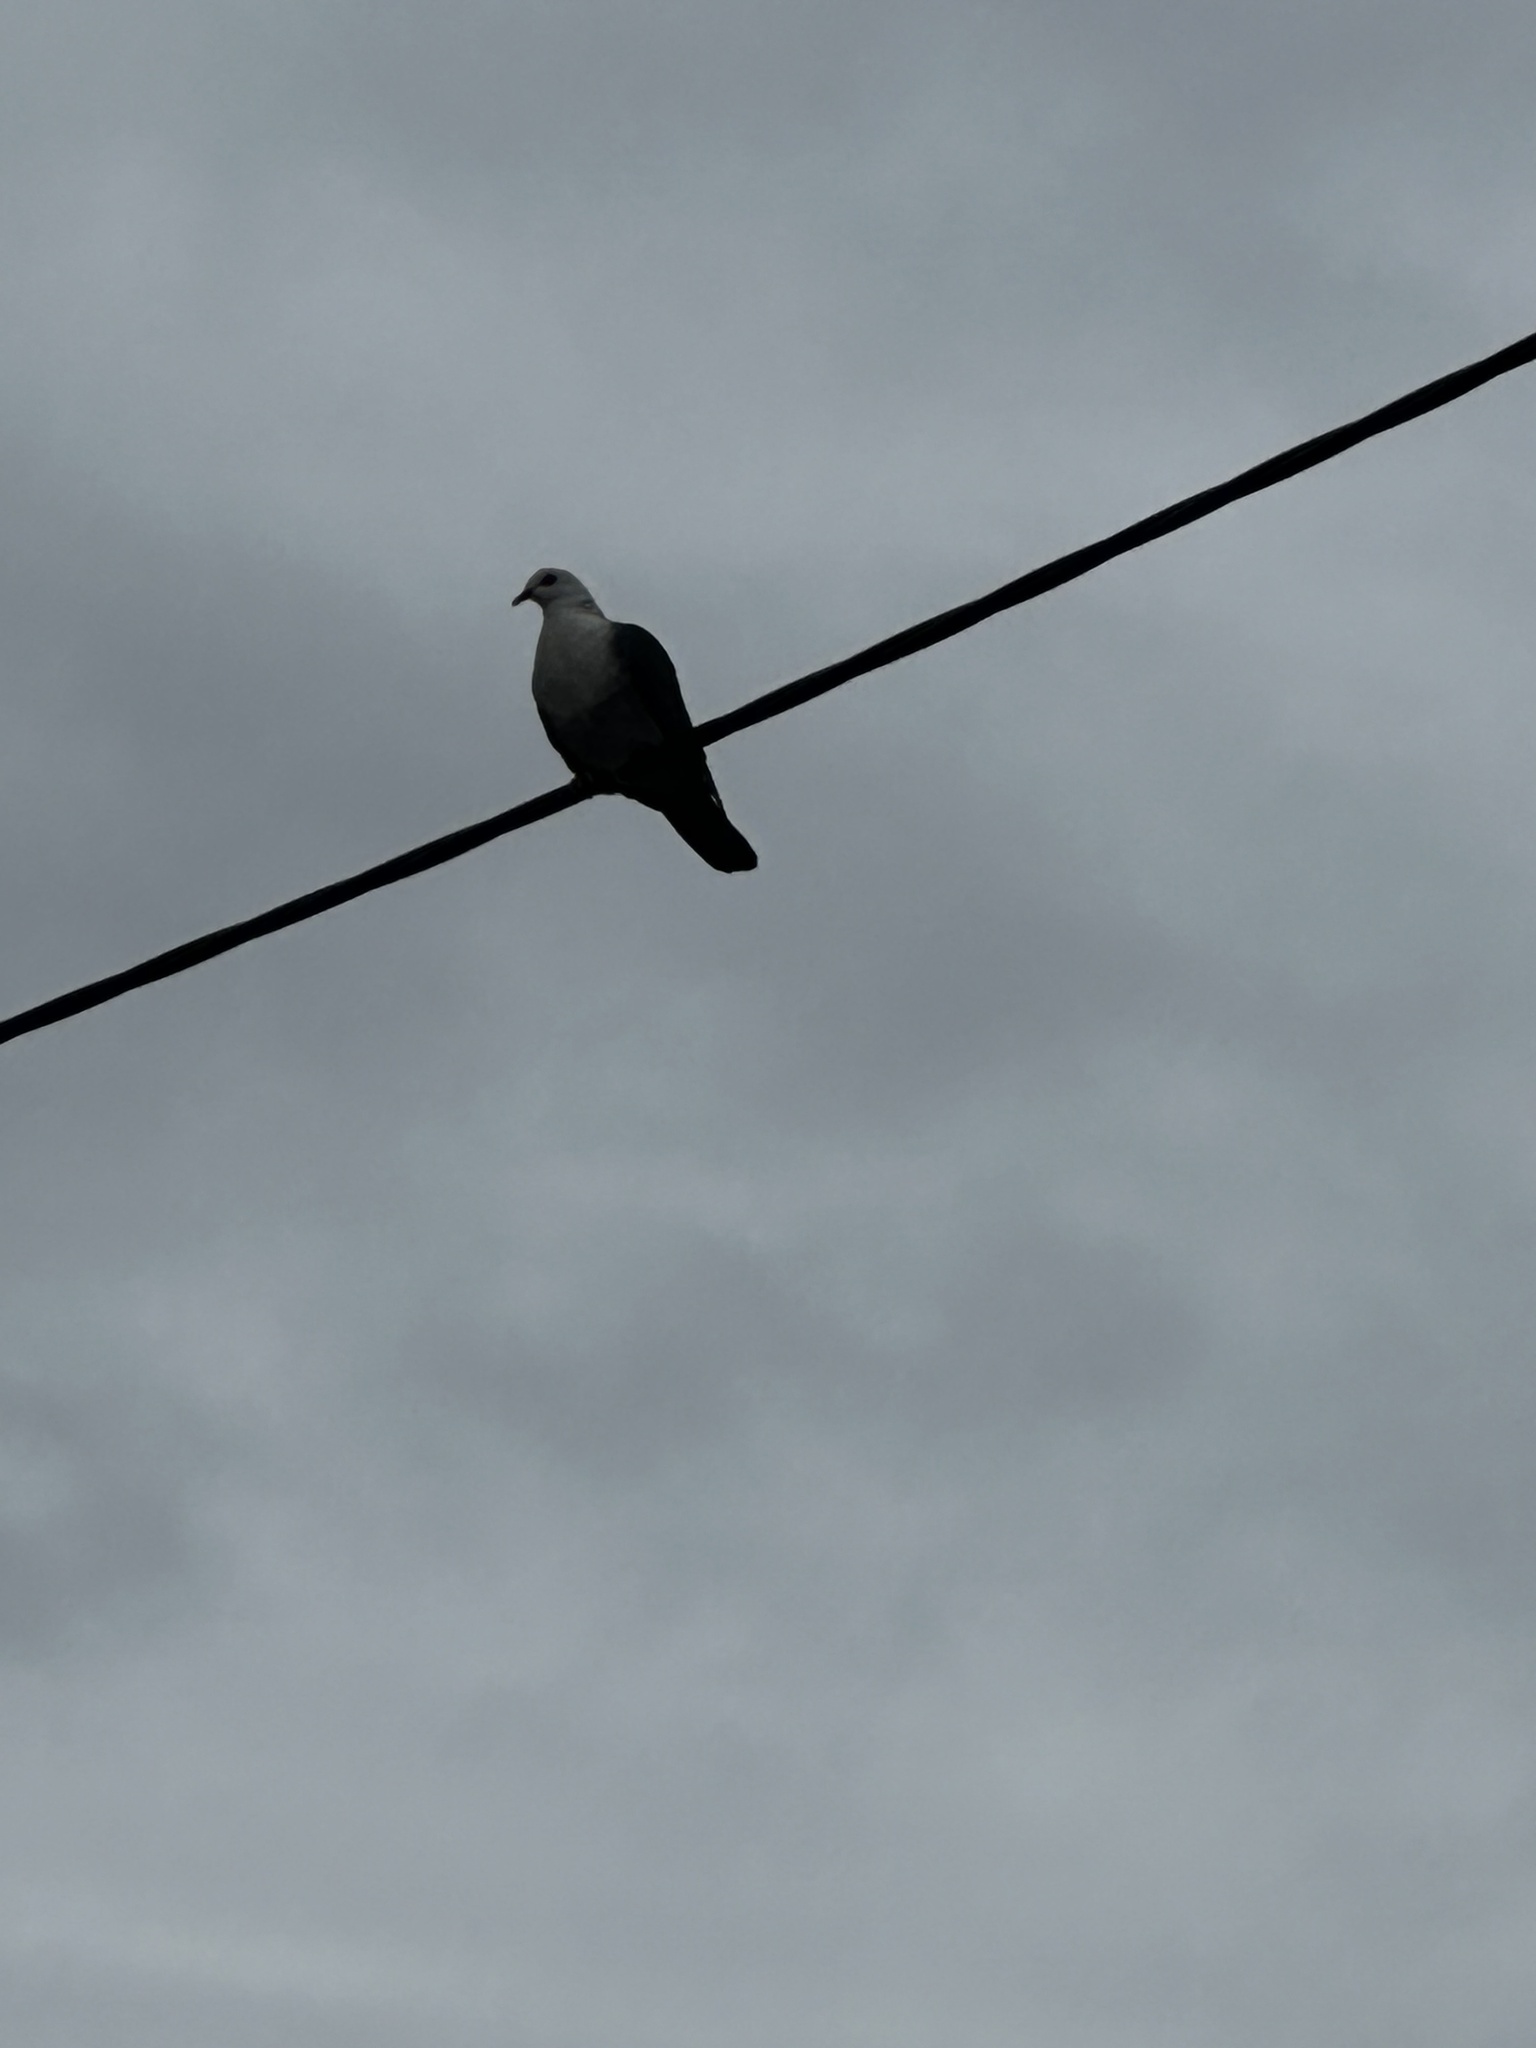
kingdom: Animalia
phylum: Chordata
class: Aves
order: Columbiformes
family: Columbidae
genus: Columba
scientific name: Columba leucomela
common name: White-headed pigeon
